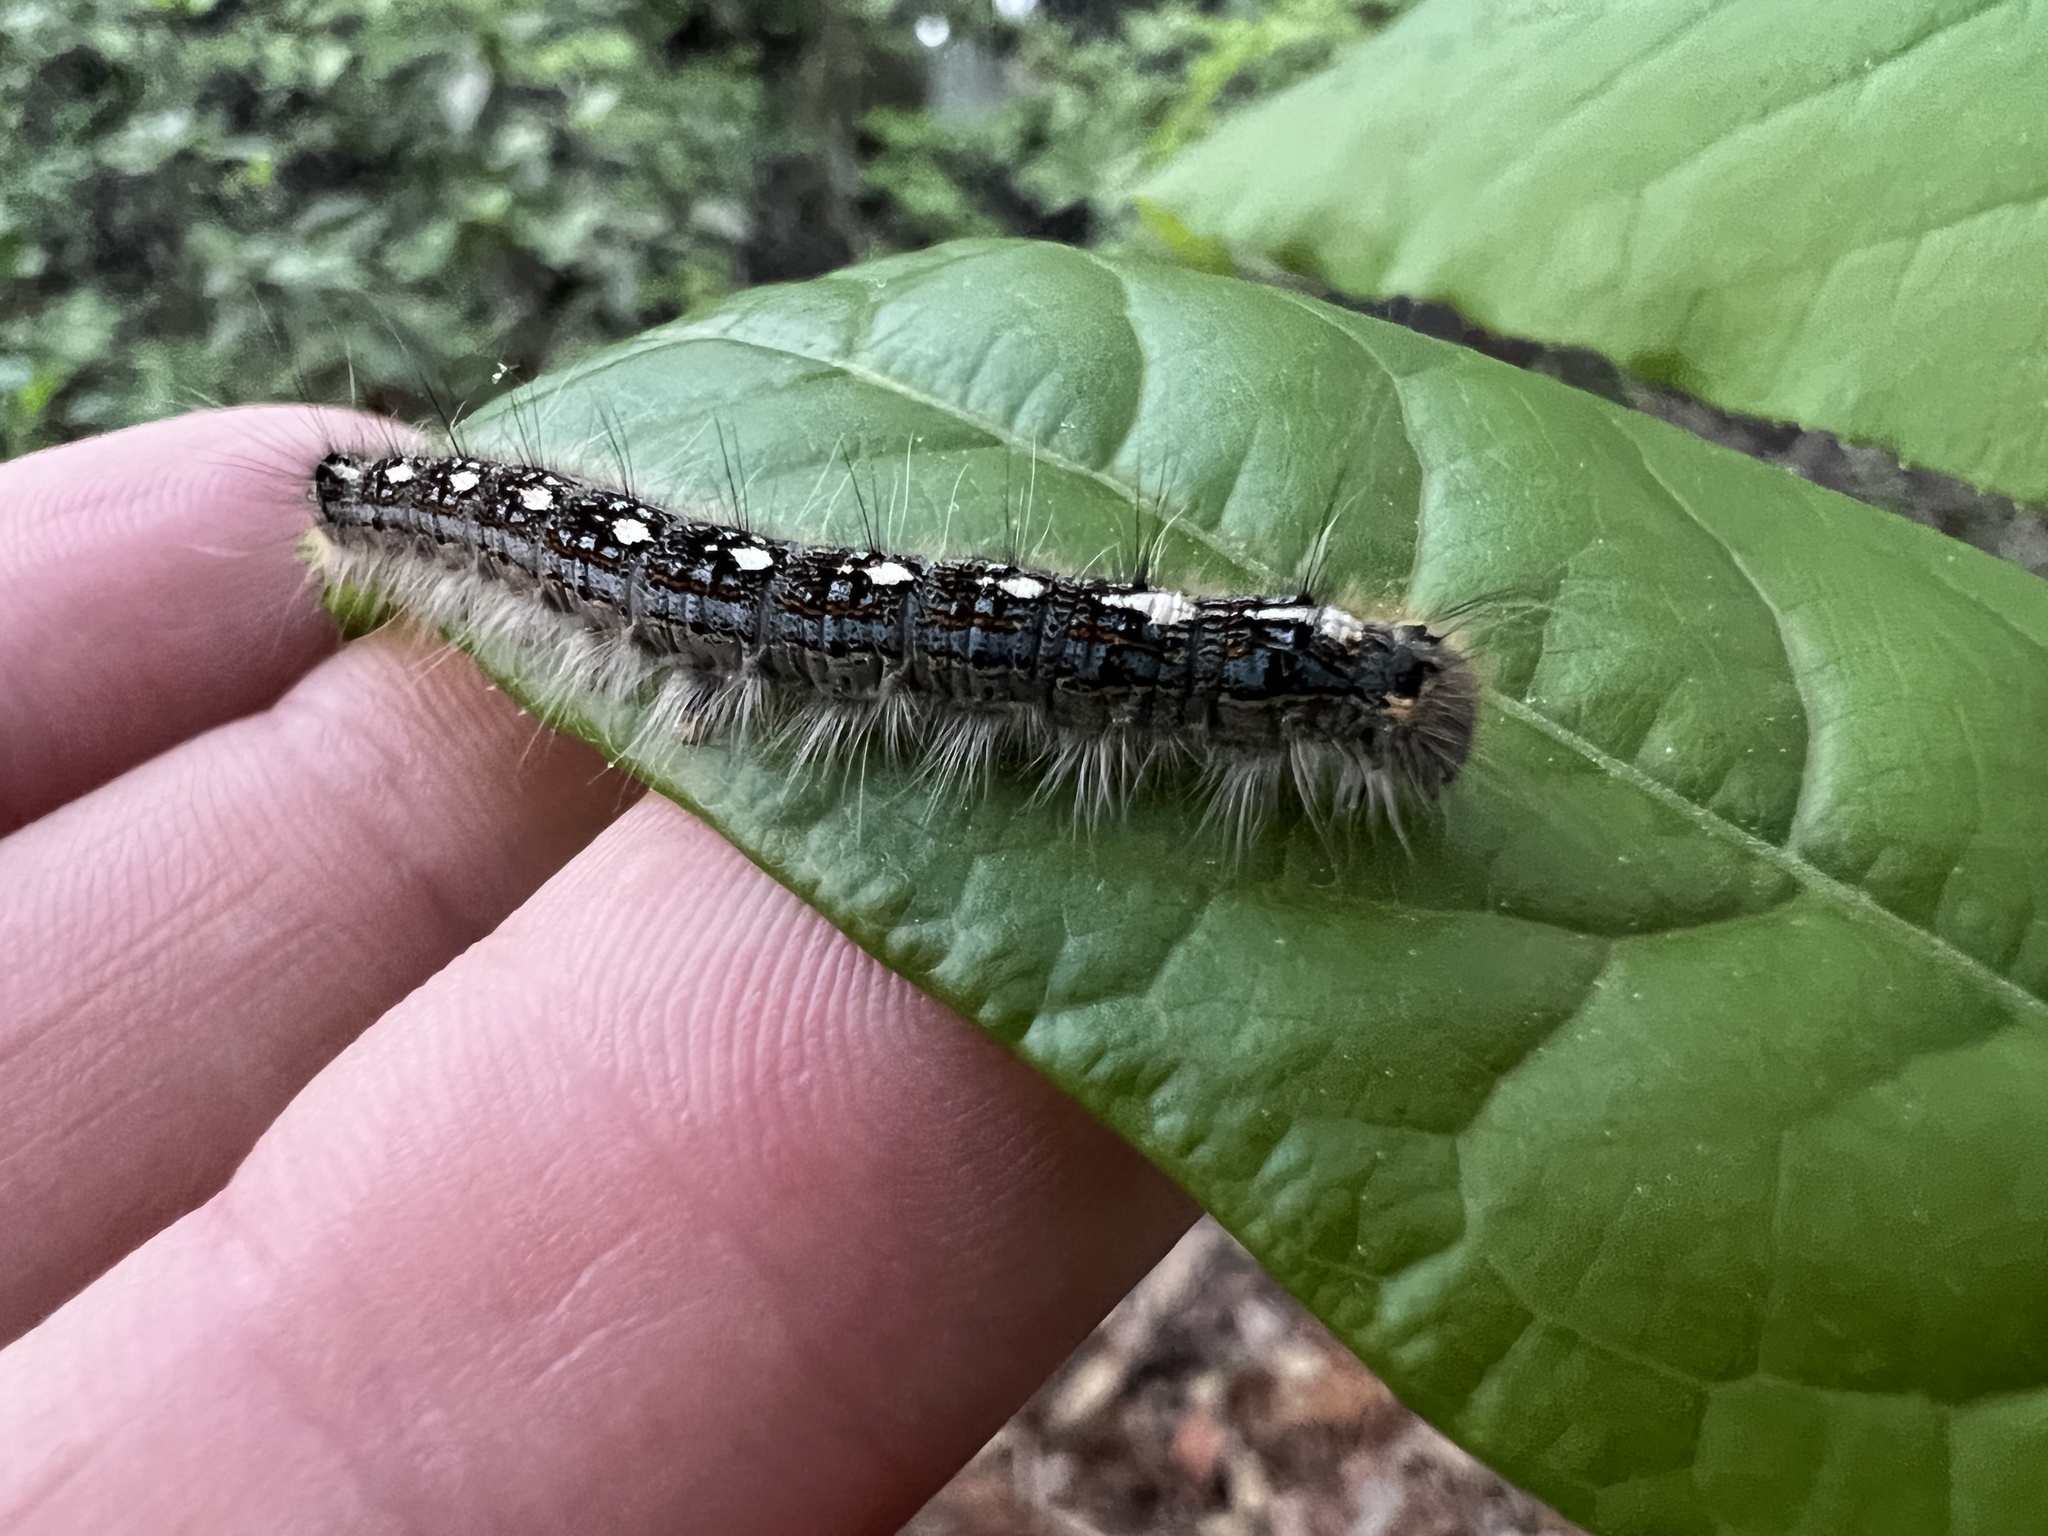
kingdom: Animalia
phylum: Arthropoda
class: Insecta
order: Lepidoptera
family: Lasiocampidae
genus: Malacosoma
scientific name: Malacosoma disstria
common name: Forest tent caterpillar
